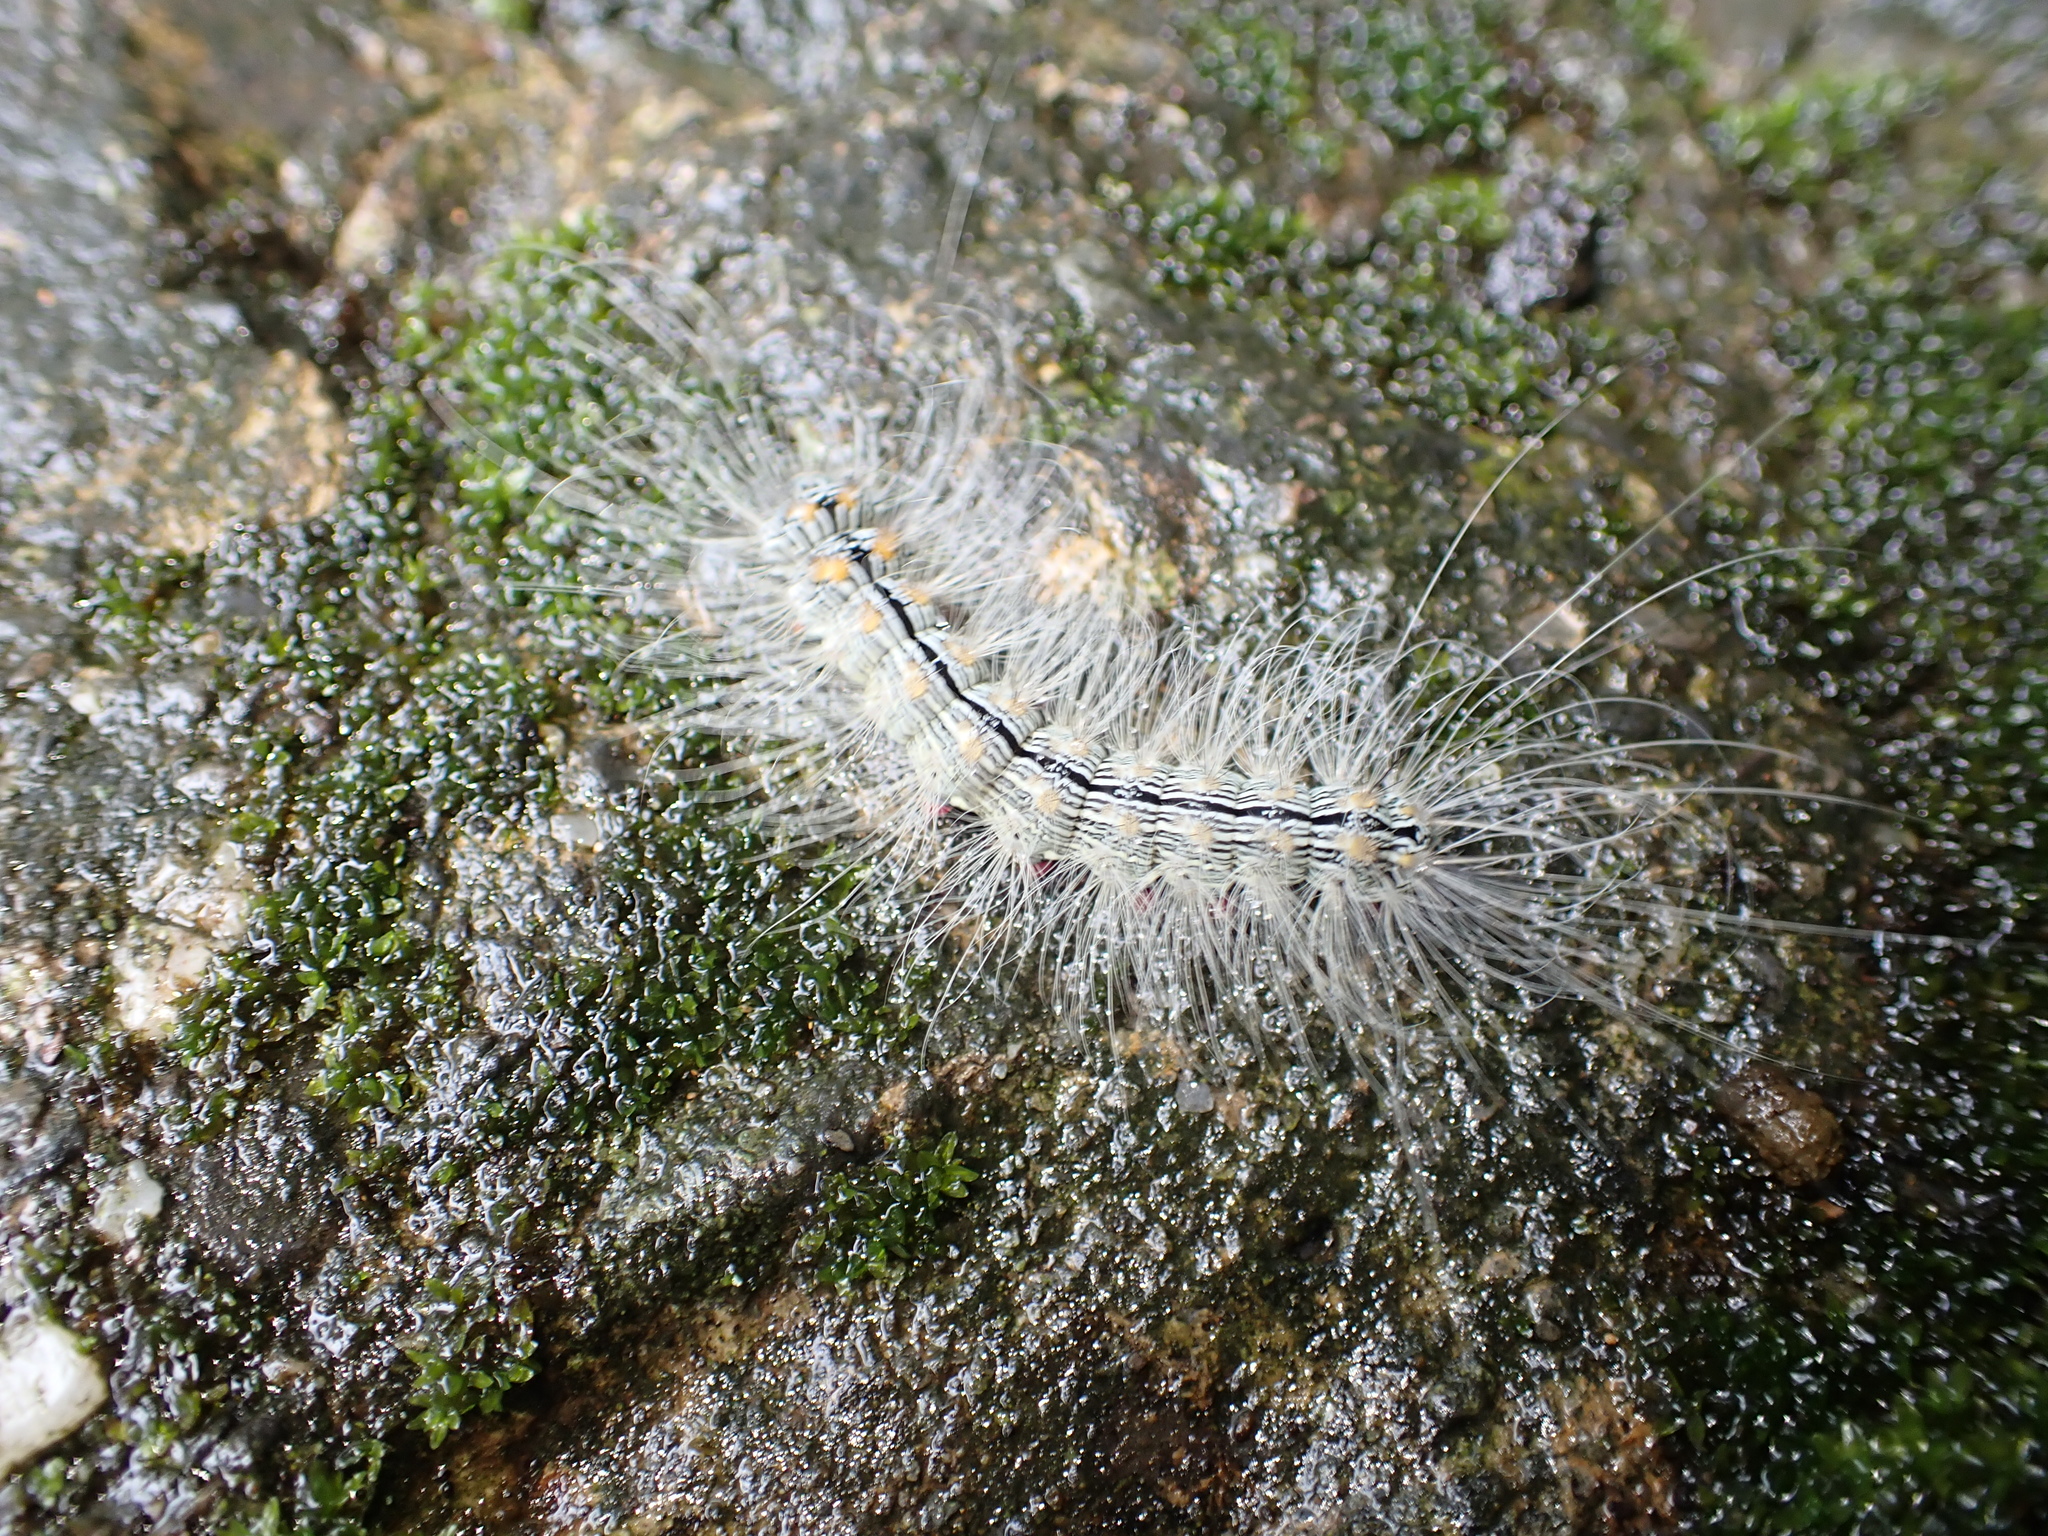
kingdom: Animalia
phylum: Arthropoda
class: Insecta
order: Lepidoptera
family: Erebidae
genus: Chrysaeglia
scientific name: Chrysaeglia magnifica
